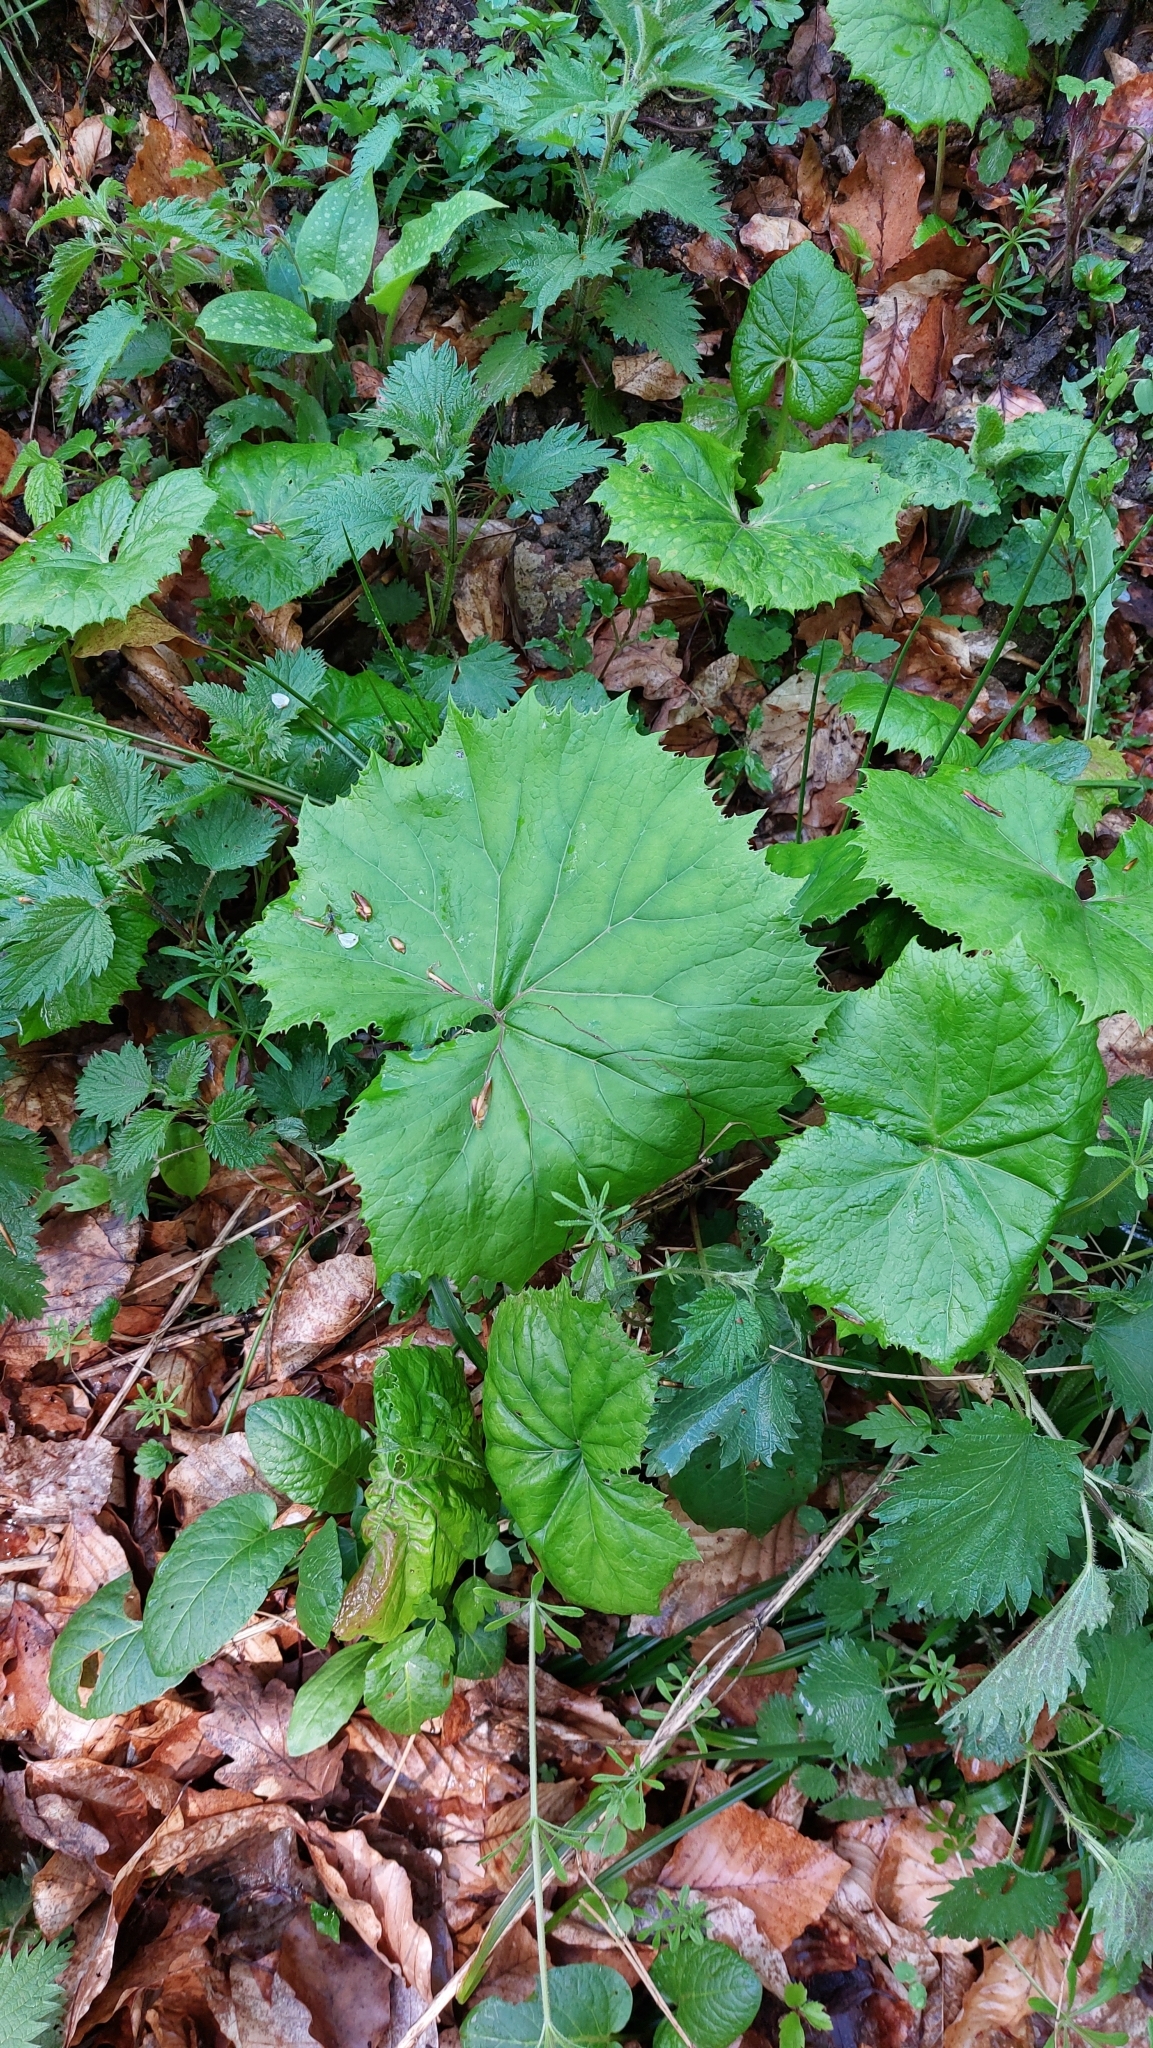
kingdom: Plantae
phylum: Tracheophyta
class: Magnoliopsida
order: Asterales
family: Asteraceae
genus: Petasites
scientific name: Petasites albus
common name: White butterbur
